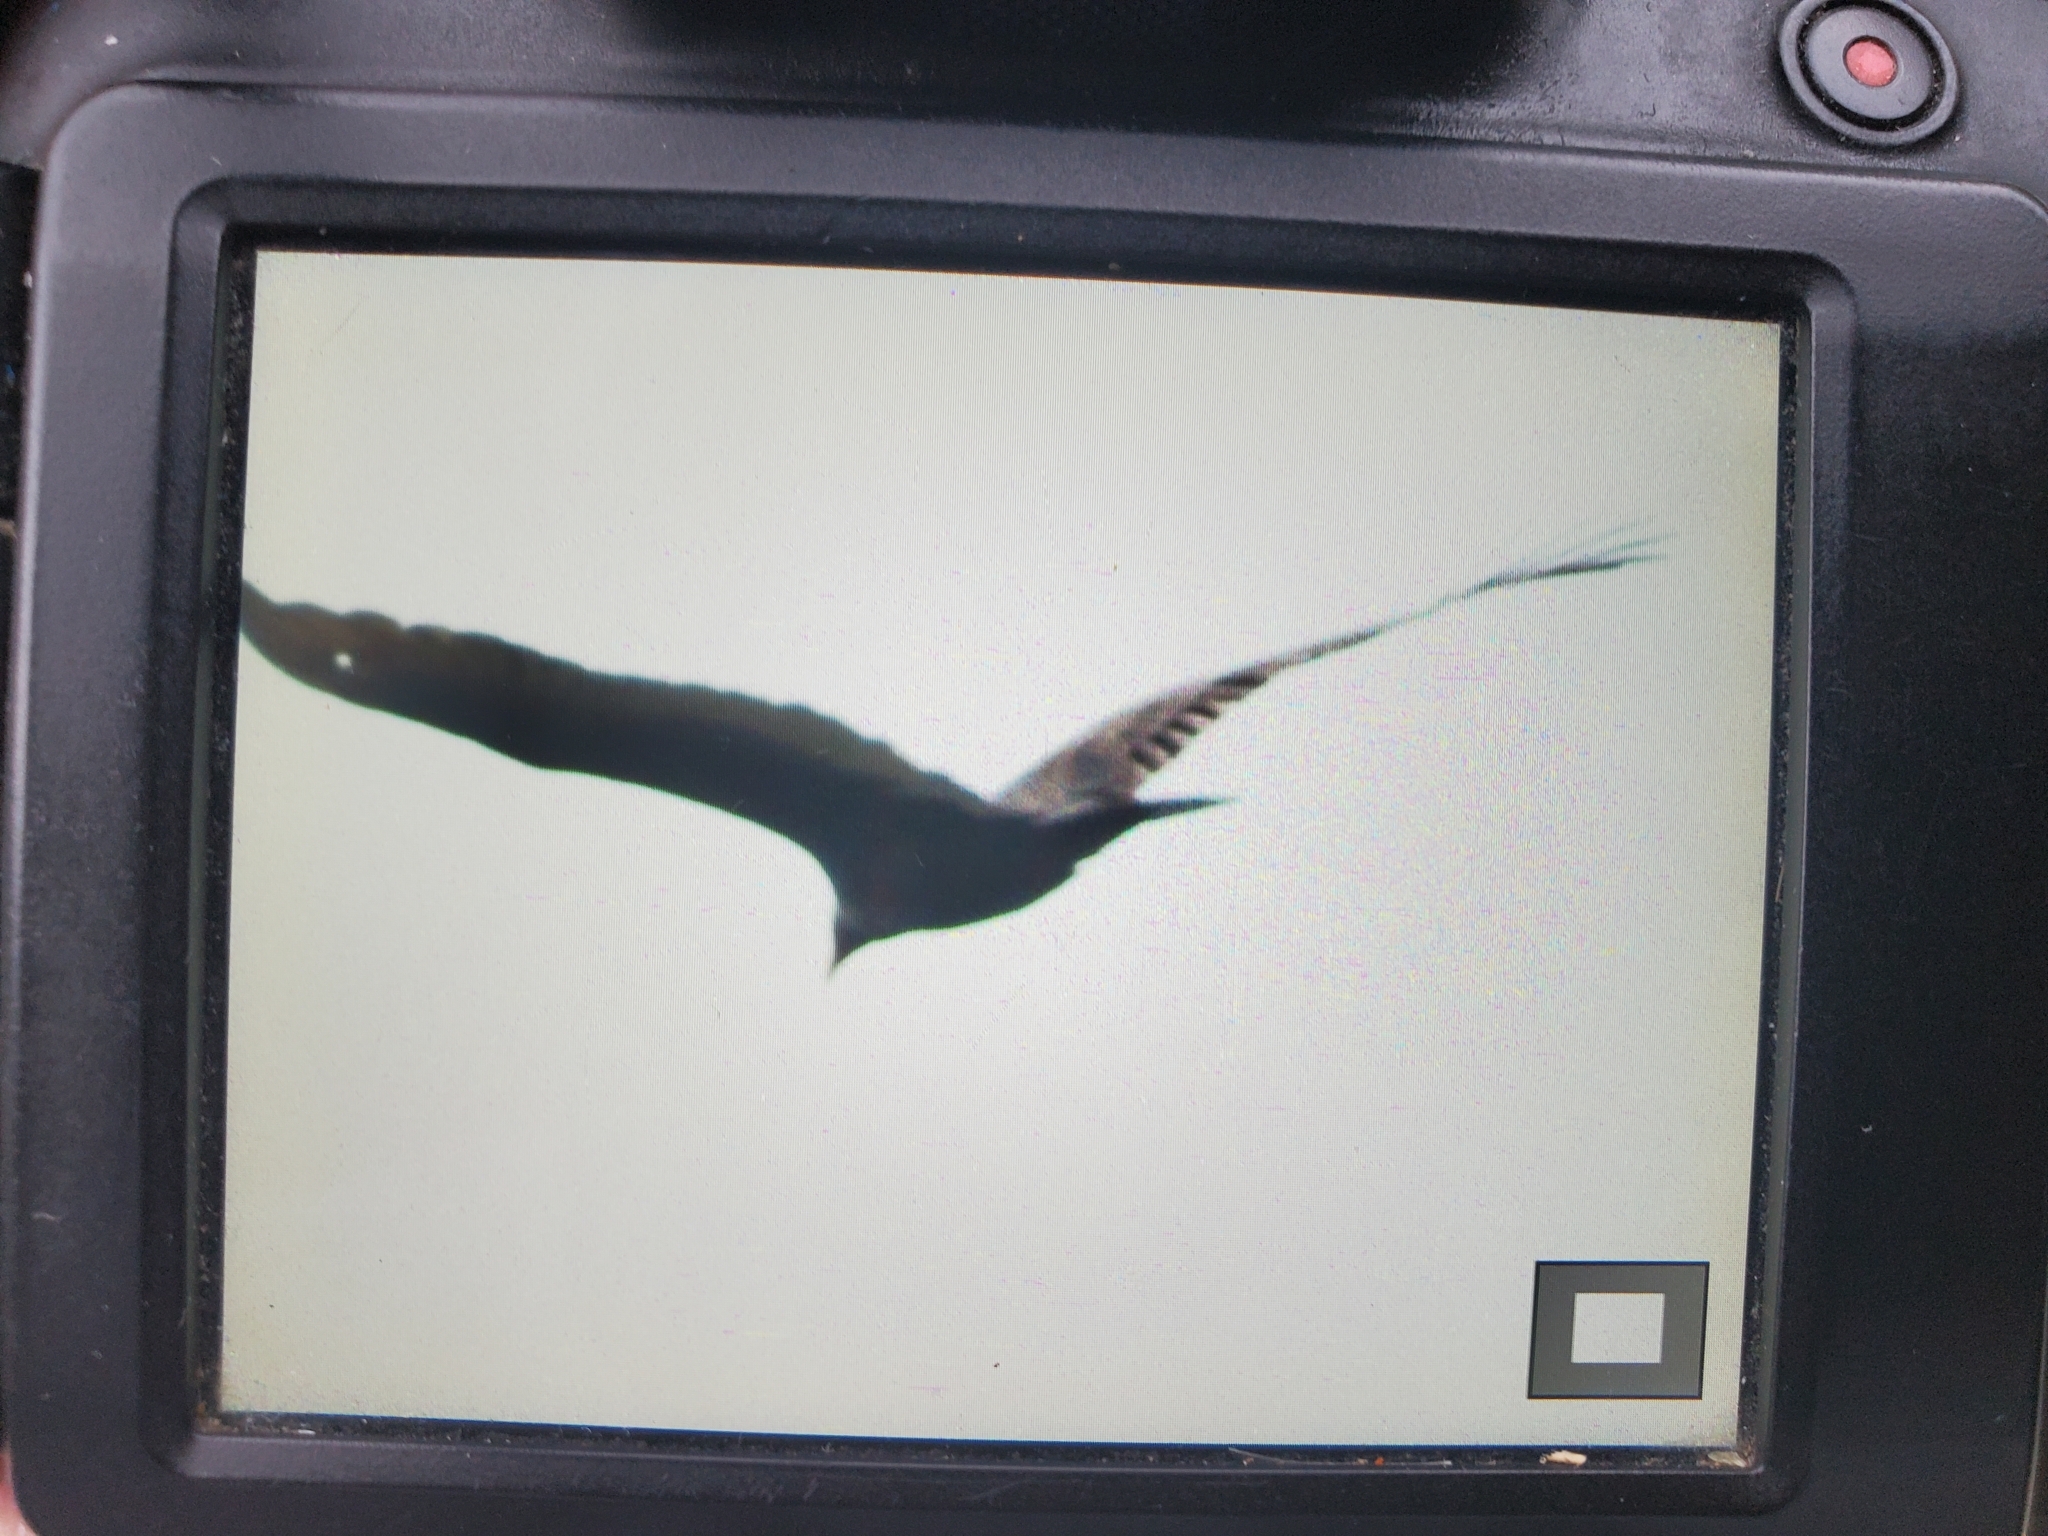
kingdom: Animalia
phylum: Chordata
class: Aves
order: Accipitriformes
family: Cathartidae
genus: Cathartes
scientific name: Cathartes aura
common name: Turkey vulture
